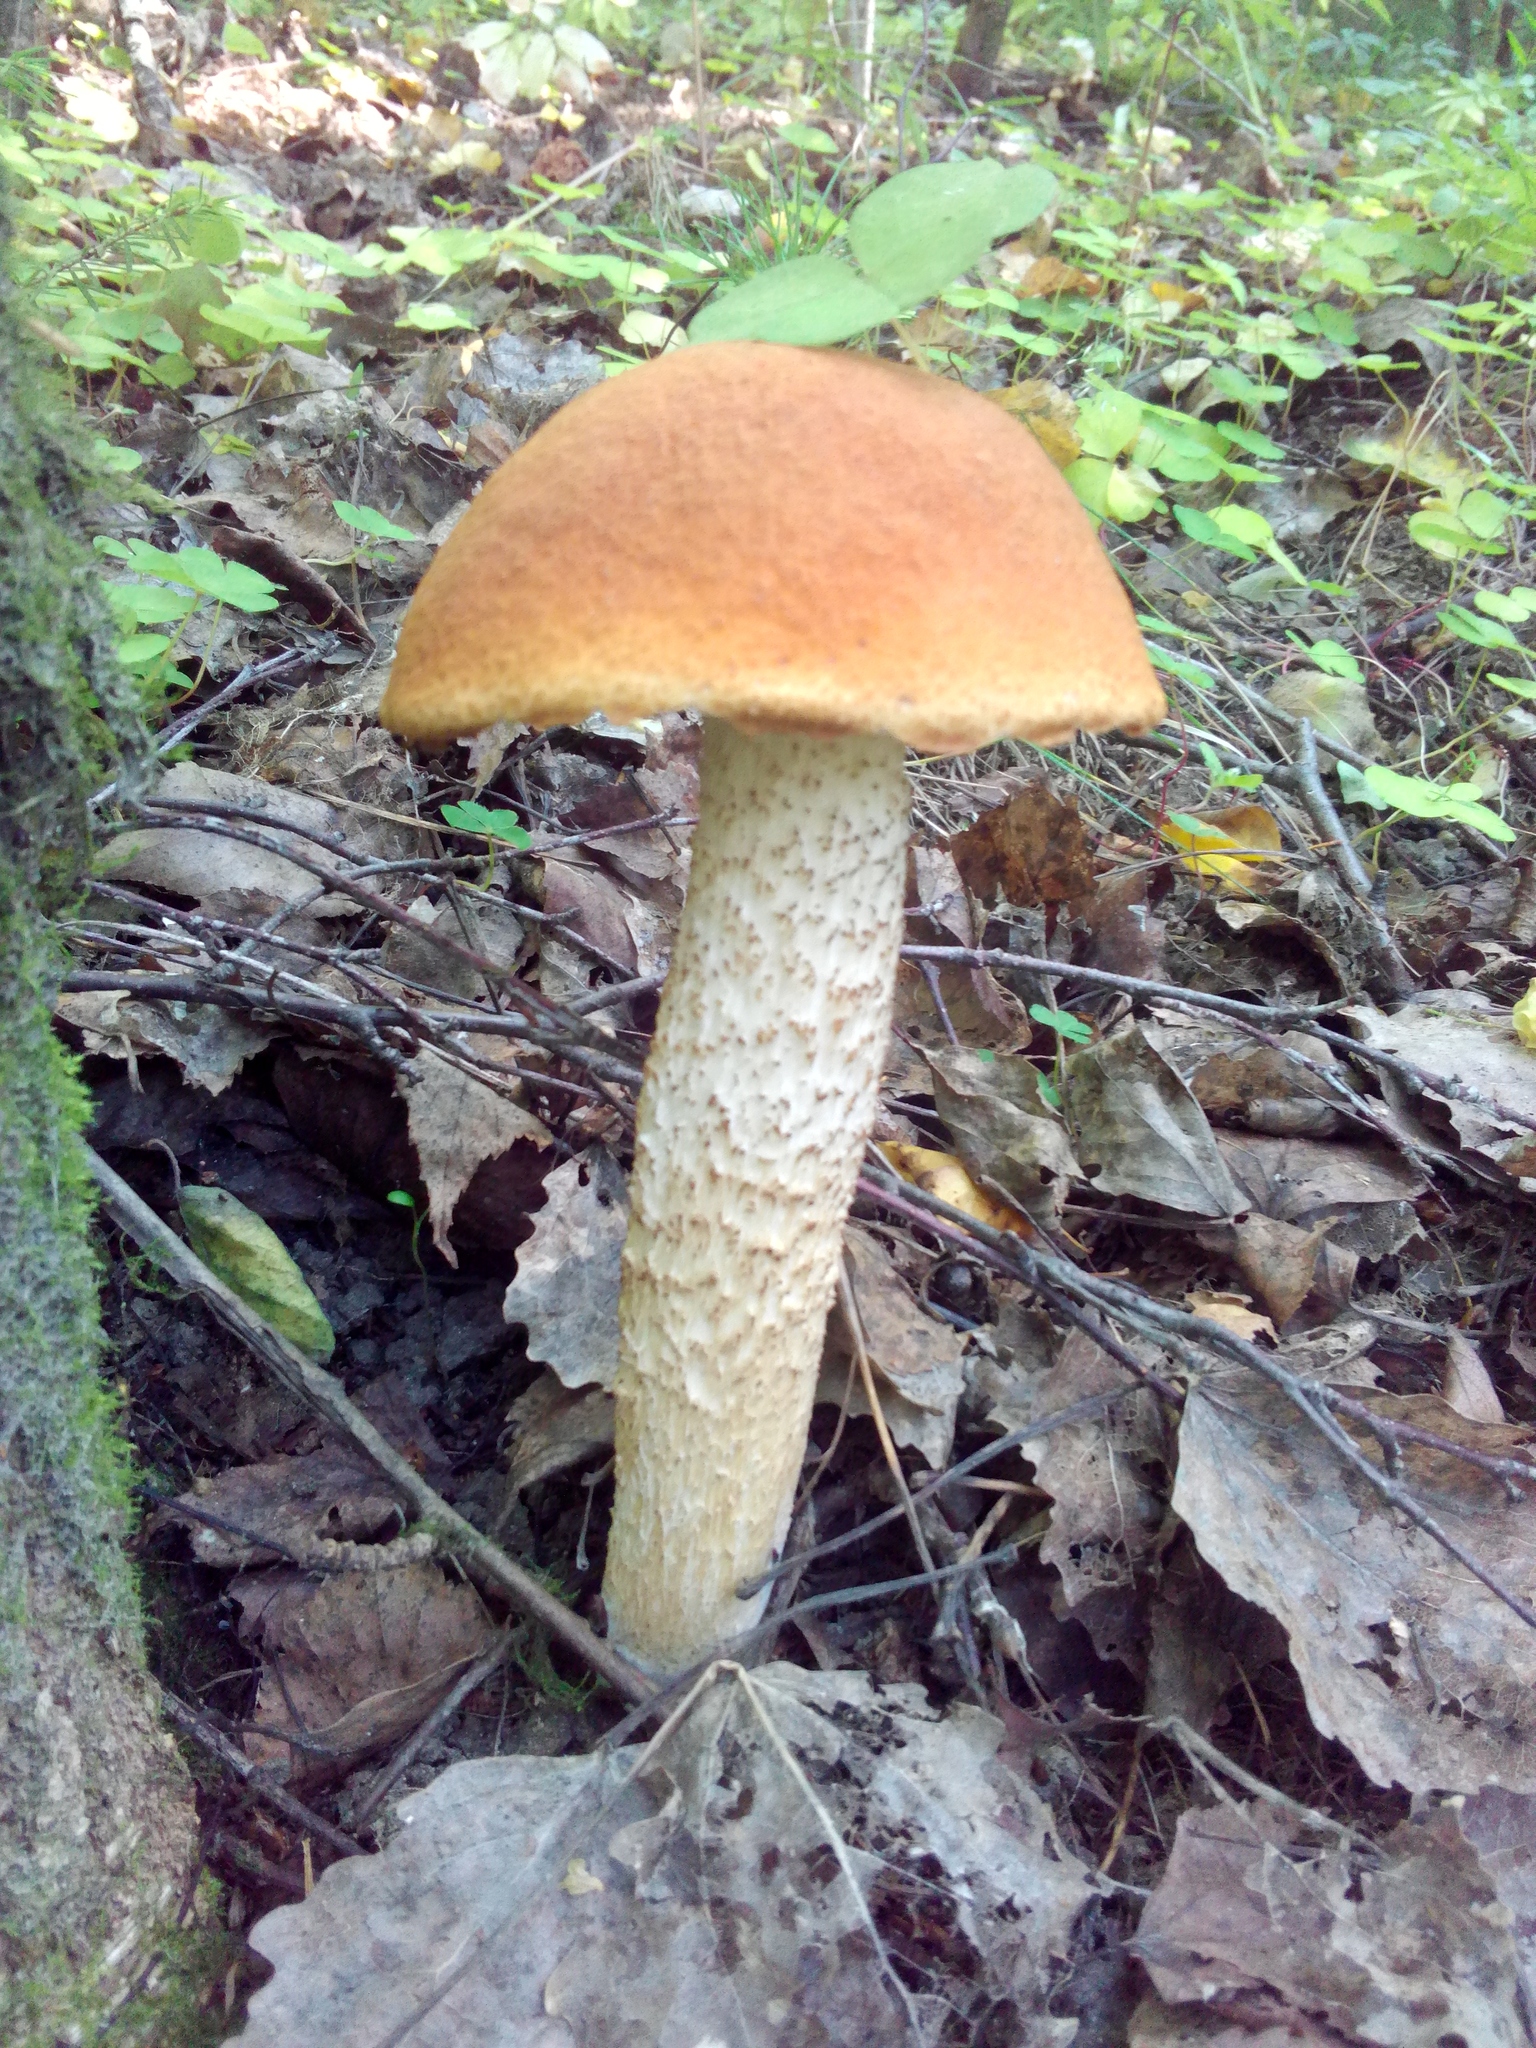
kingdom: Fungi
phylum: Basidiomycota
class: Agaricomycetes
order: Boletales
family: Boletaceae
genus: Leccinum
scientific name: Leccinum aurantiacum
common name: Orange bolete
